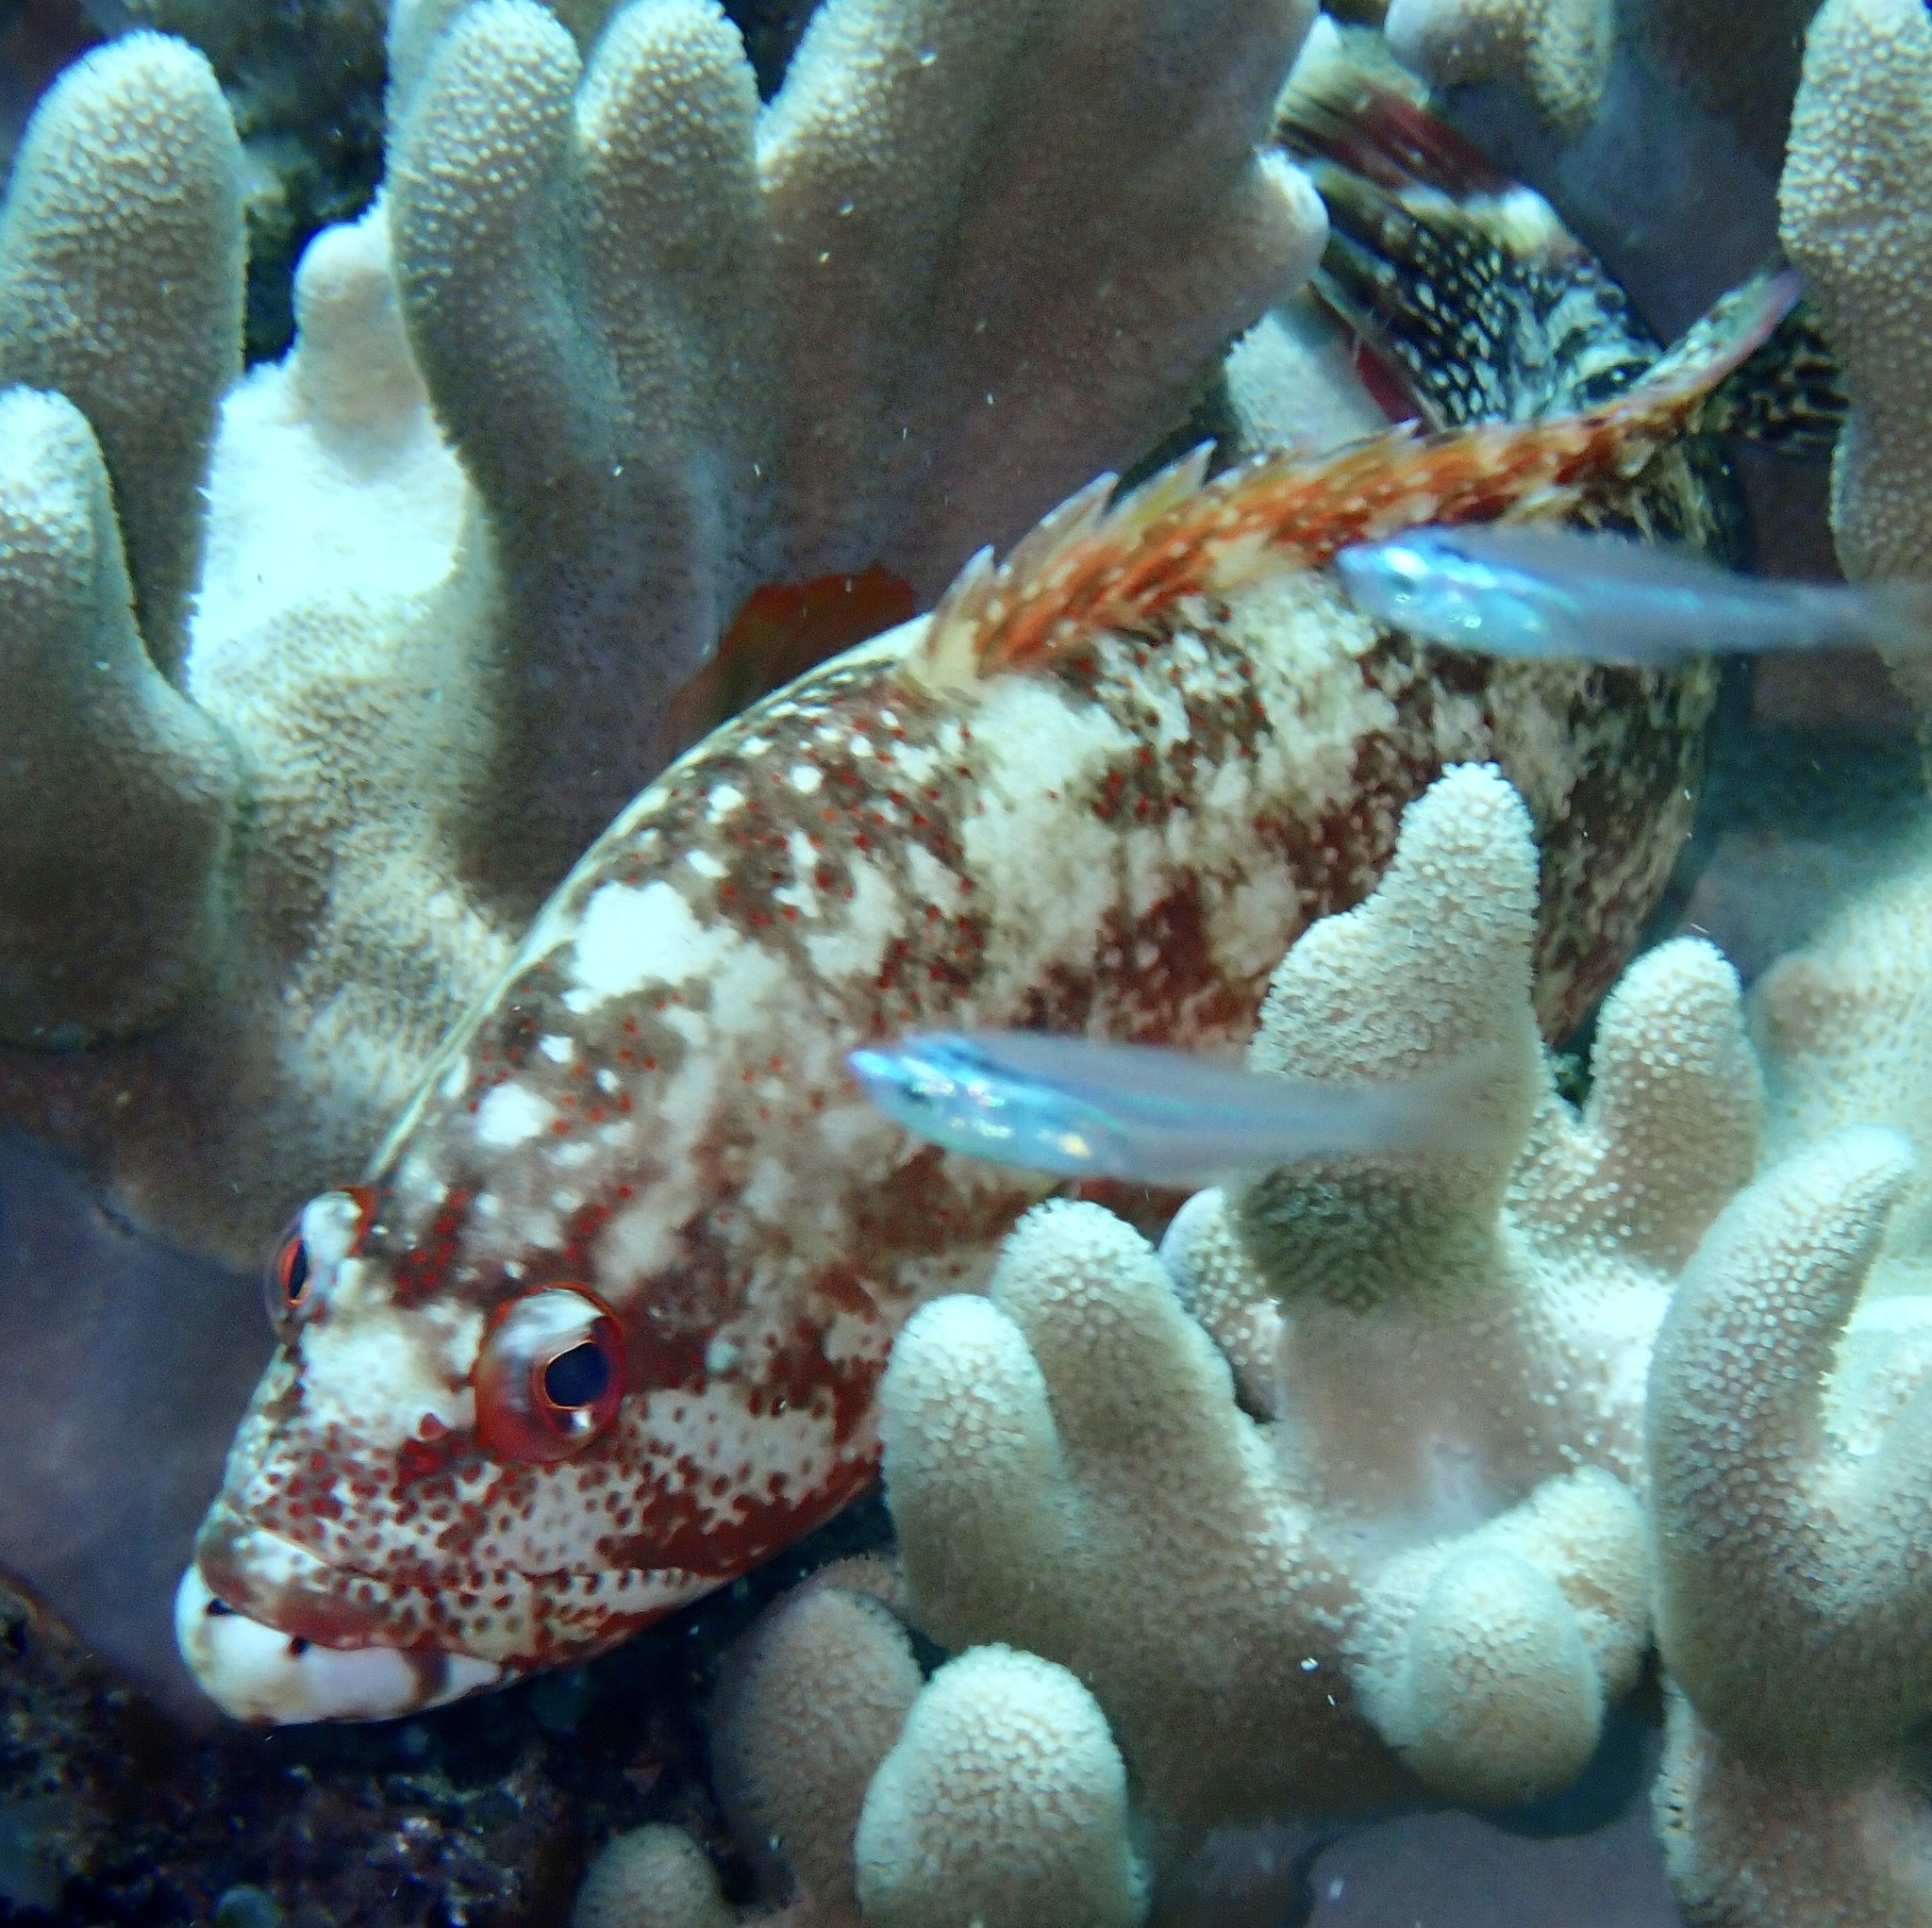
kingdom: Animalia
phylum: Chordata
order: Perciformes
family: Serranidae
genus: Cephalopholis
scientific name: Cephalopholis urodeta
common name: Darkfin hind
